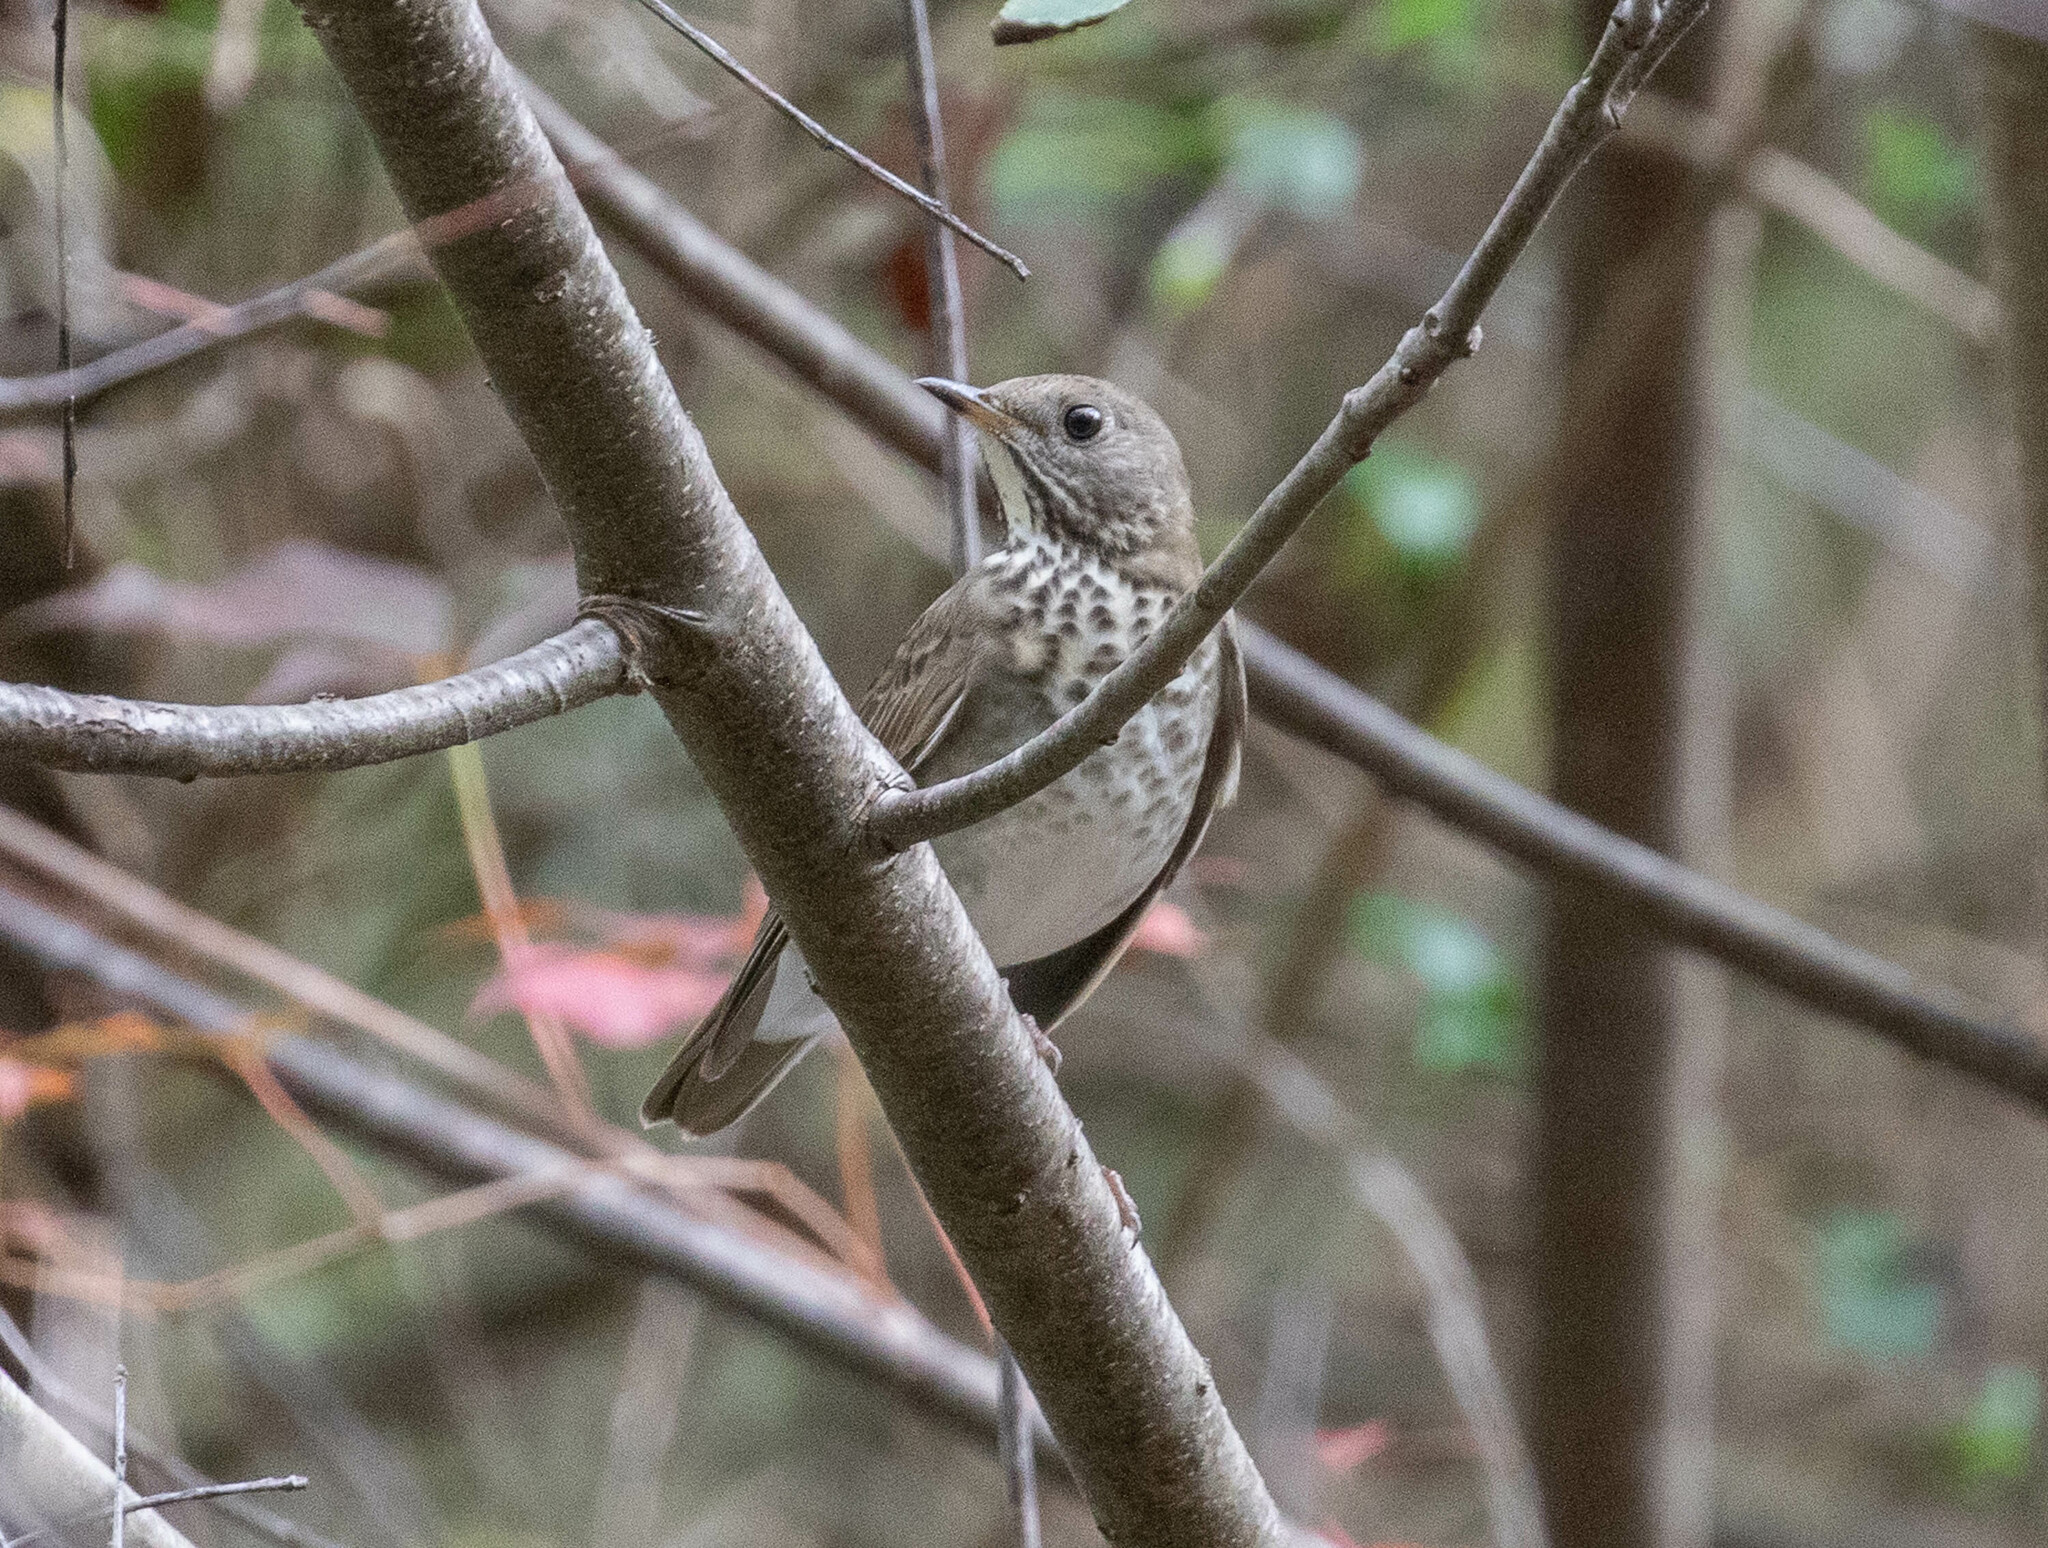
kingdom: Animalia
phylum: Chordata
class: Aves
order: Passeriformes
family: Turdidae
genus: Catharus
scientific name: Catharus minimus
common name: Grey-cheeked thrush
